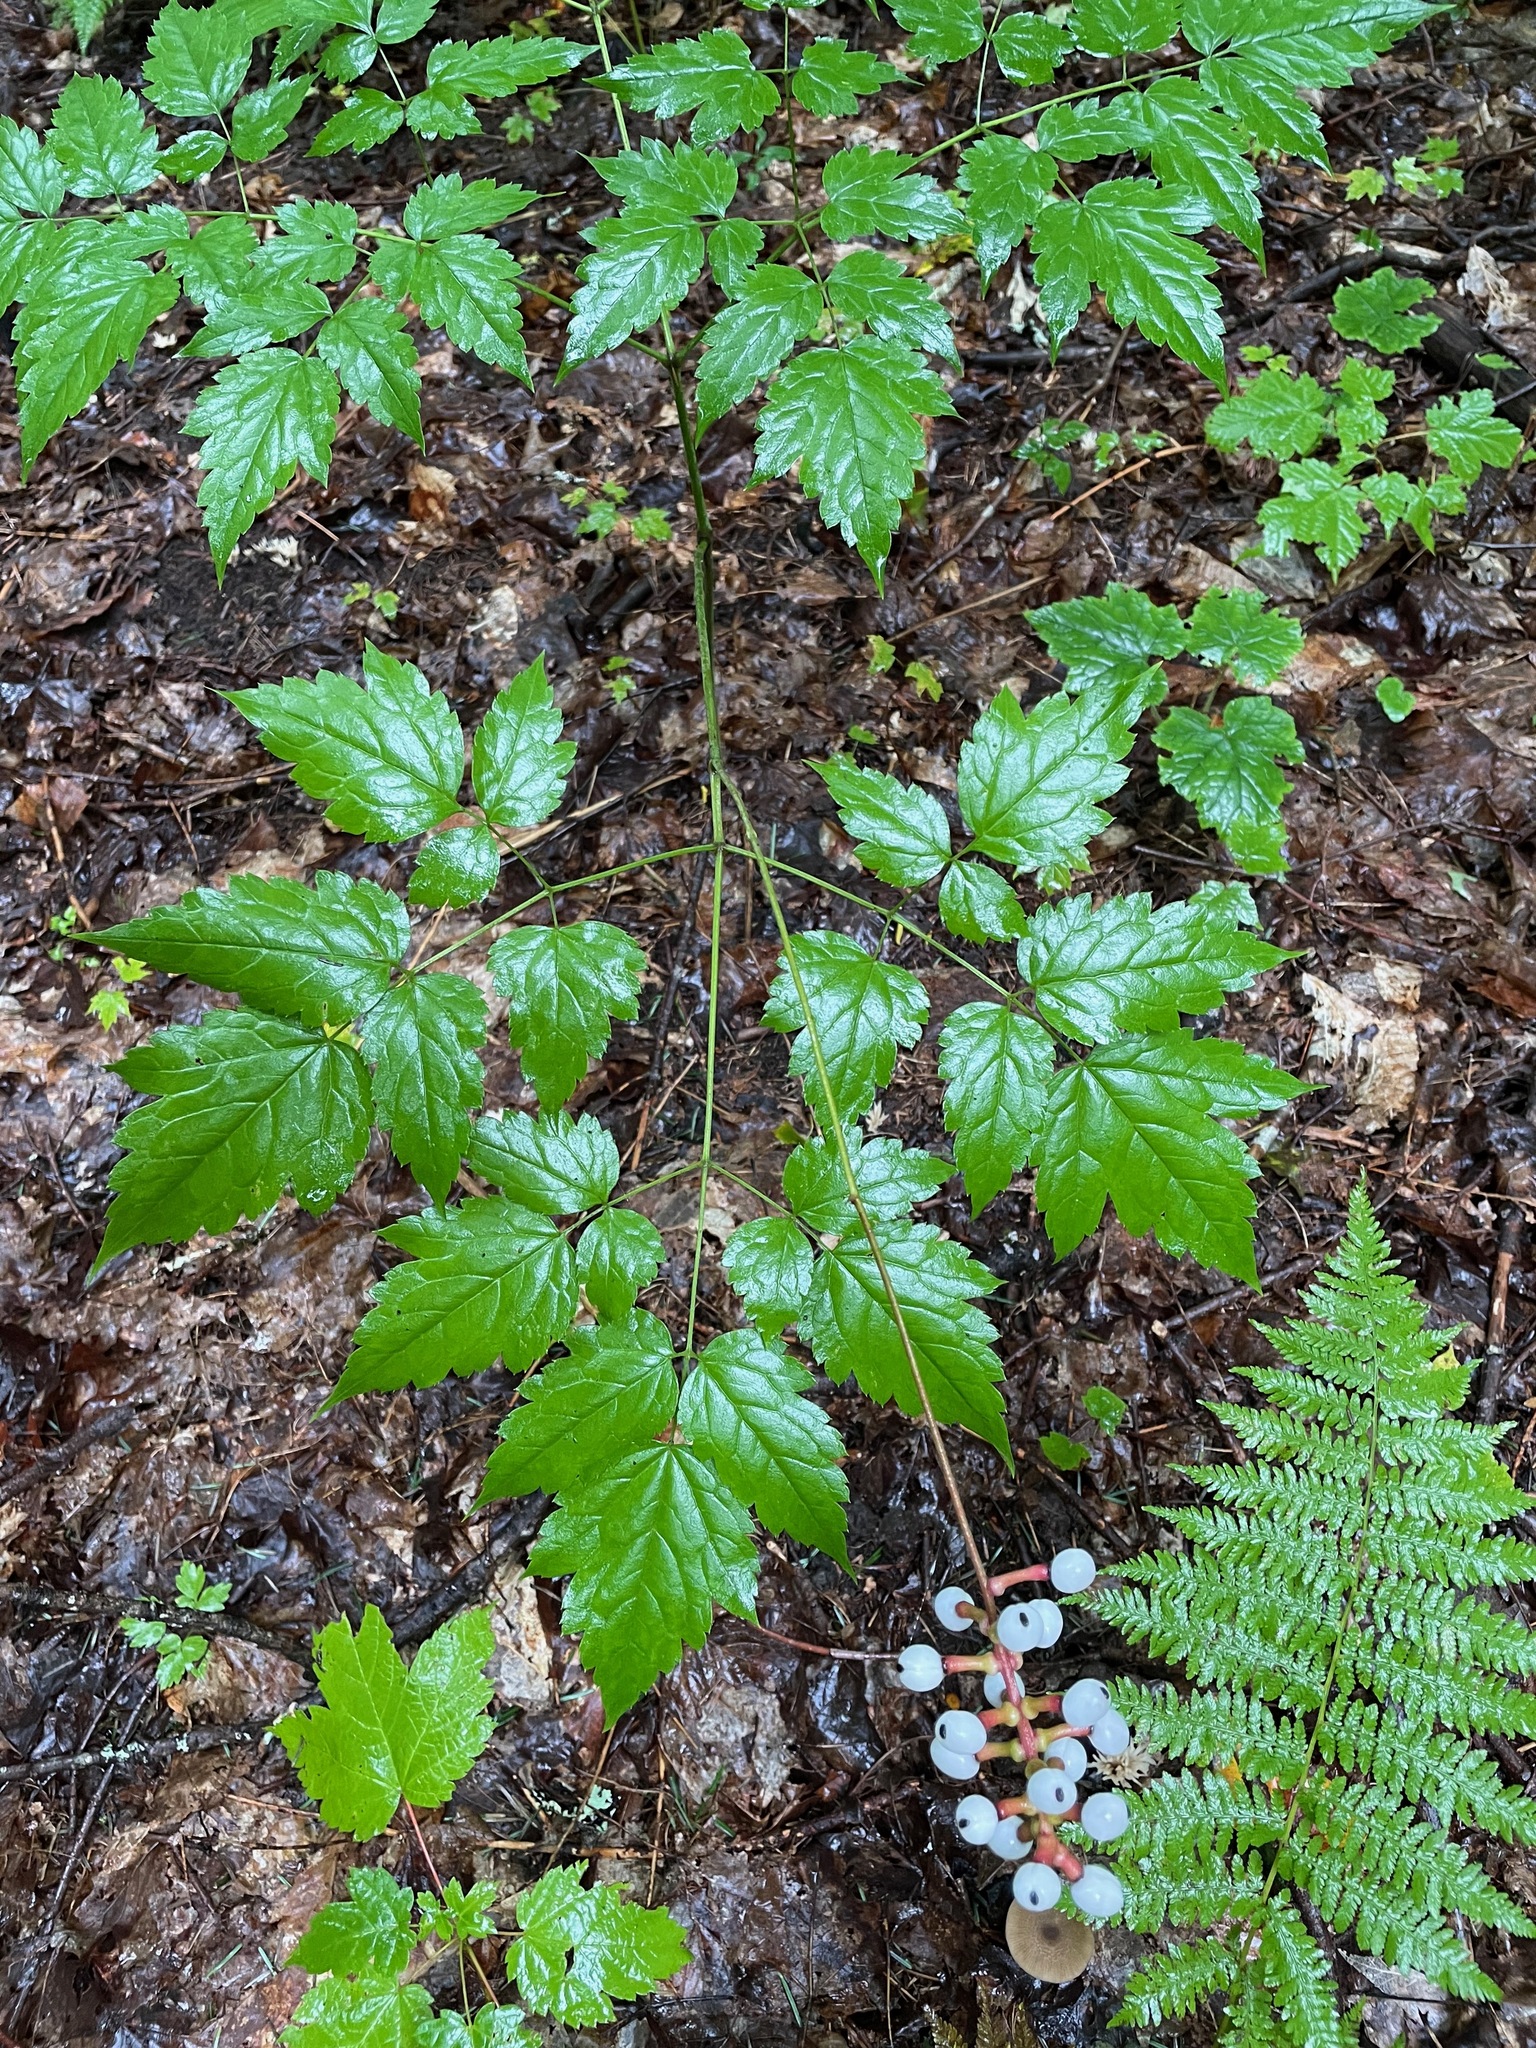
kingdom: Plantae
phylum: Tracheophyta
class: Magnoliopsida
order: Ranunculales
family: Ranunculaceae
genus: Actaea
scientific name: Actaea pachypoda
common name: Doll's-eyes
